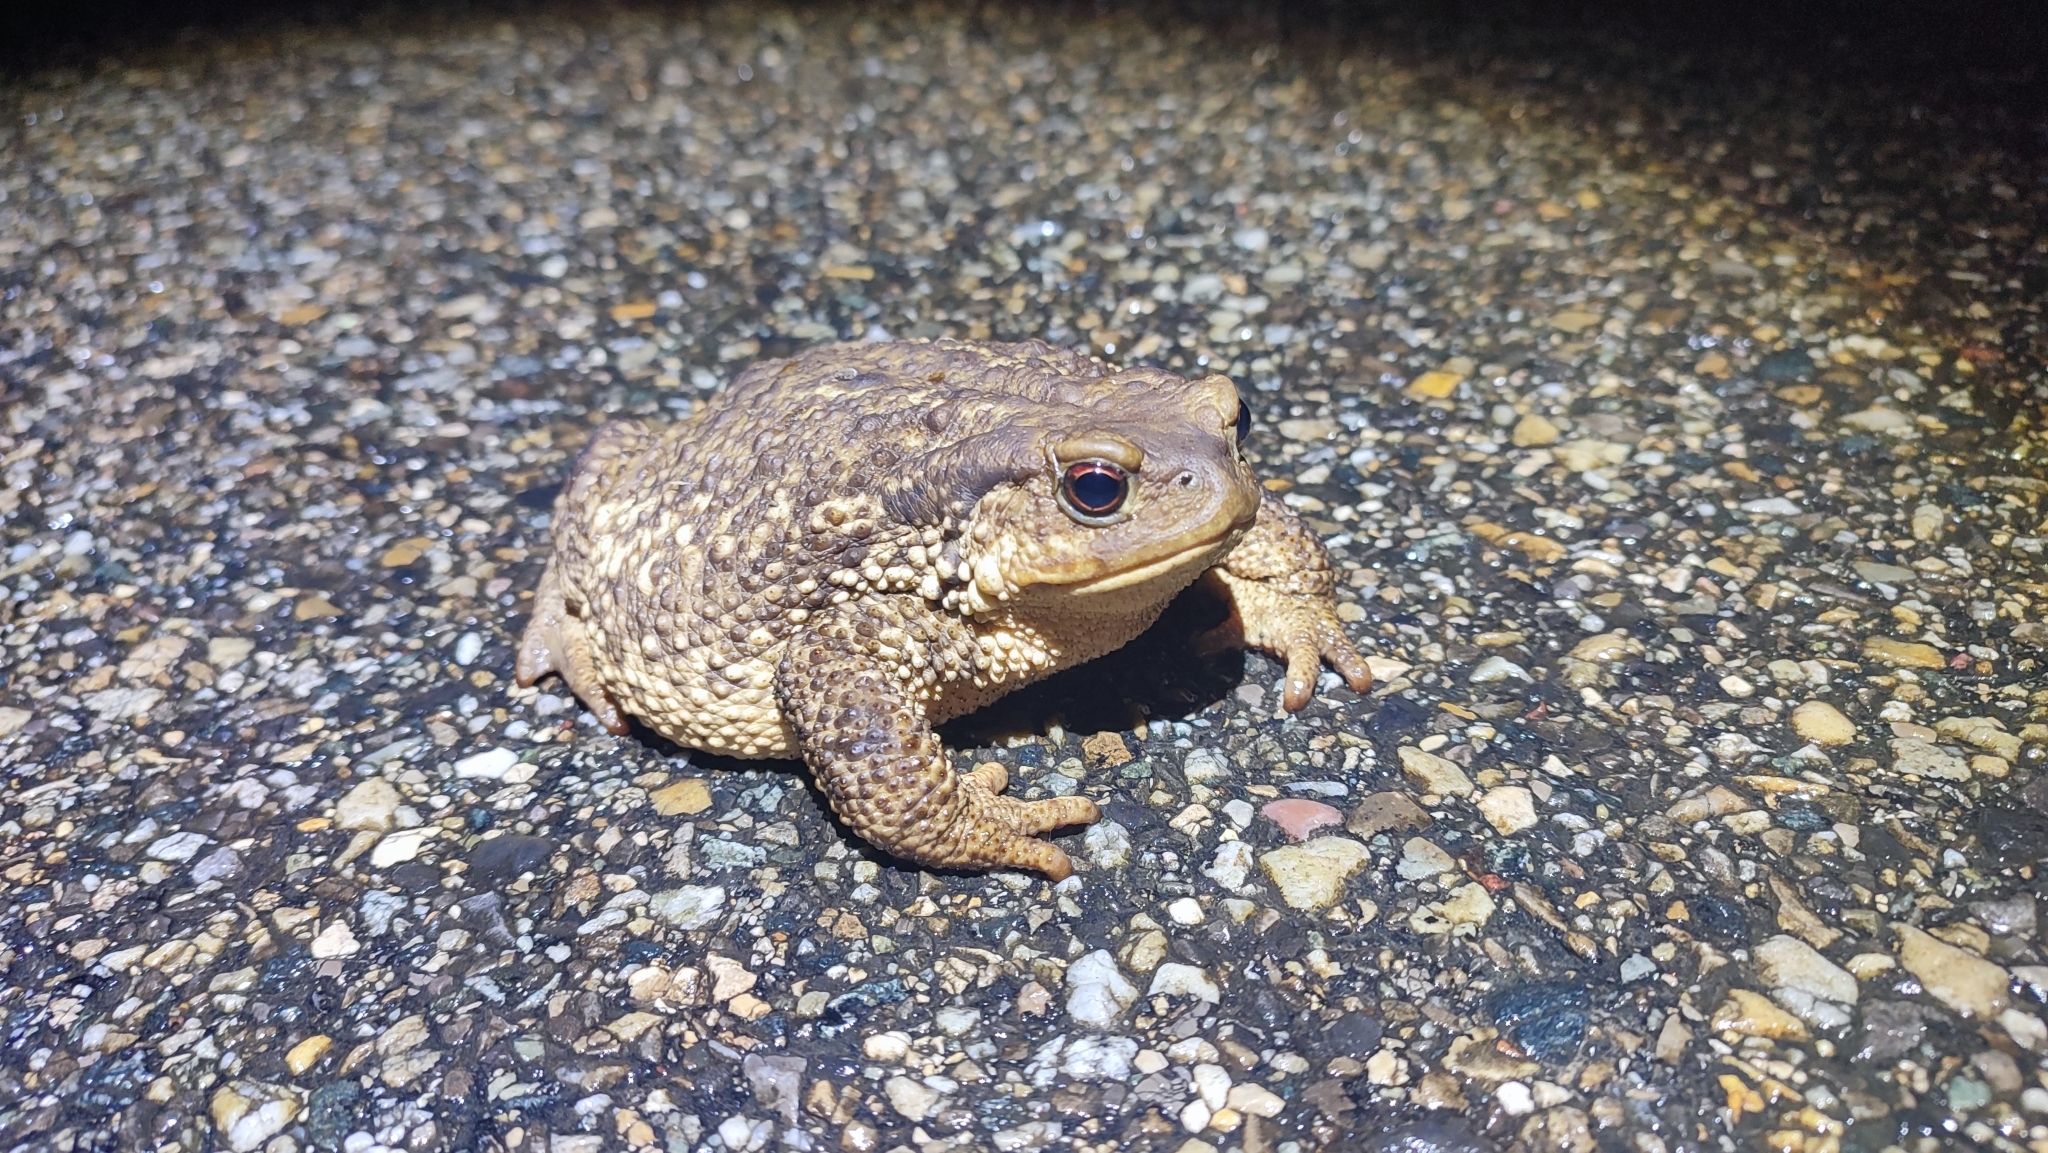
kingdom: Animalia
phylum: Chordata
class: Amphibia
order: Anura
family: Bufonidae
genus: Bufo
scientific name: Bufo spinosus
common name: Western common toad
